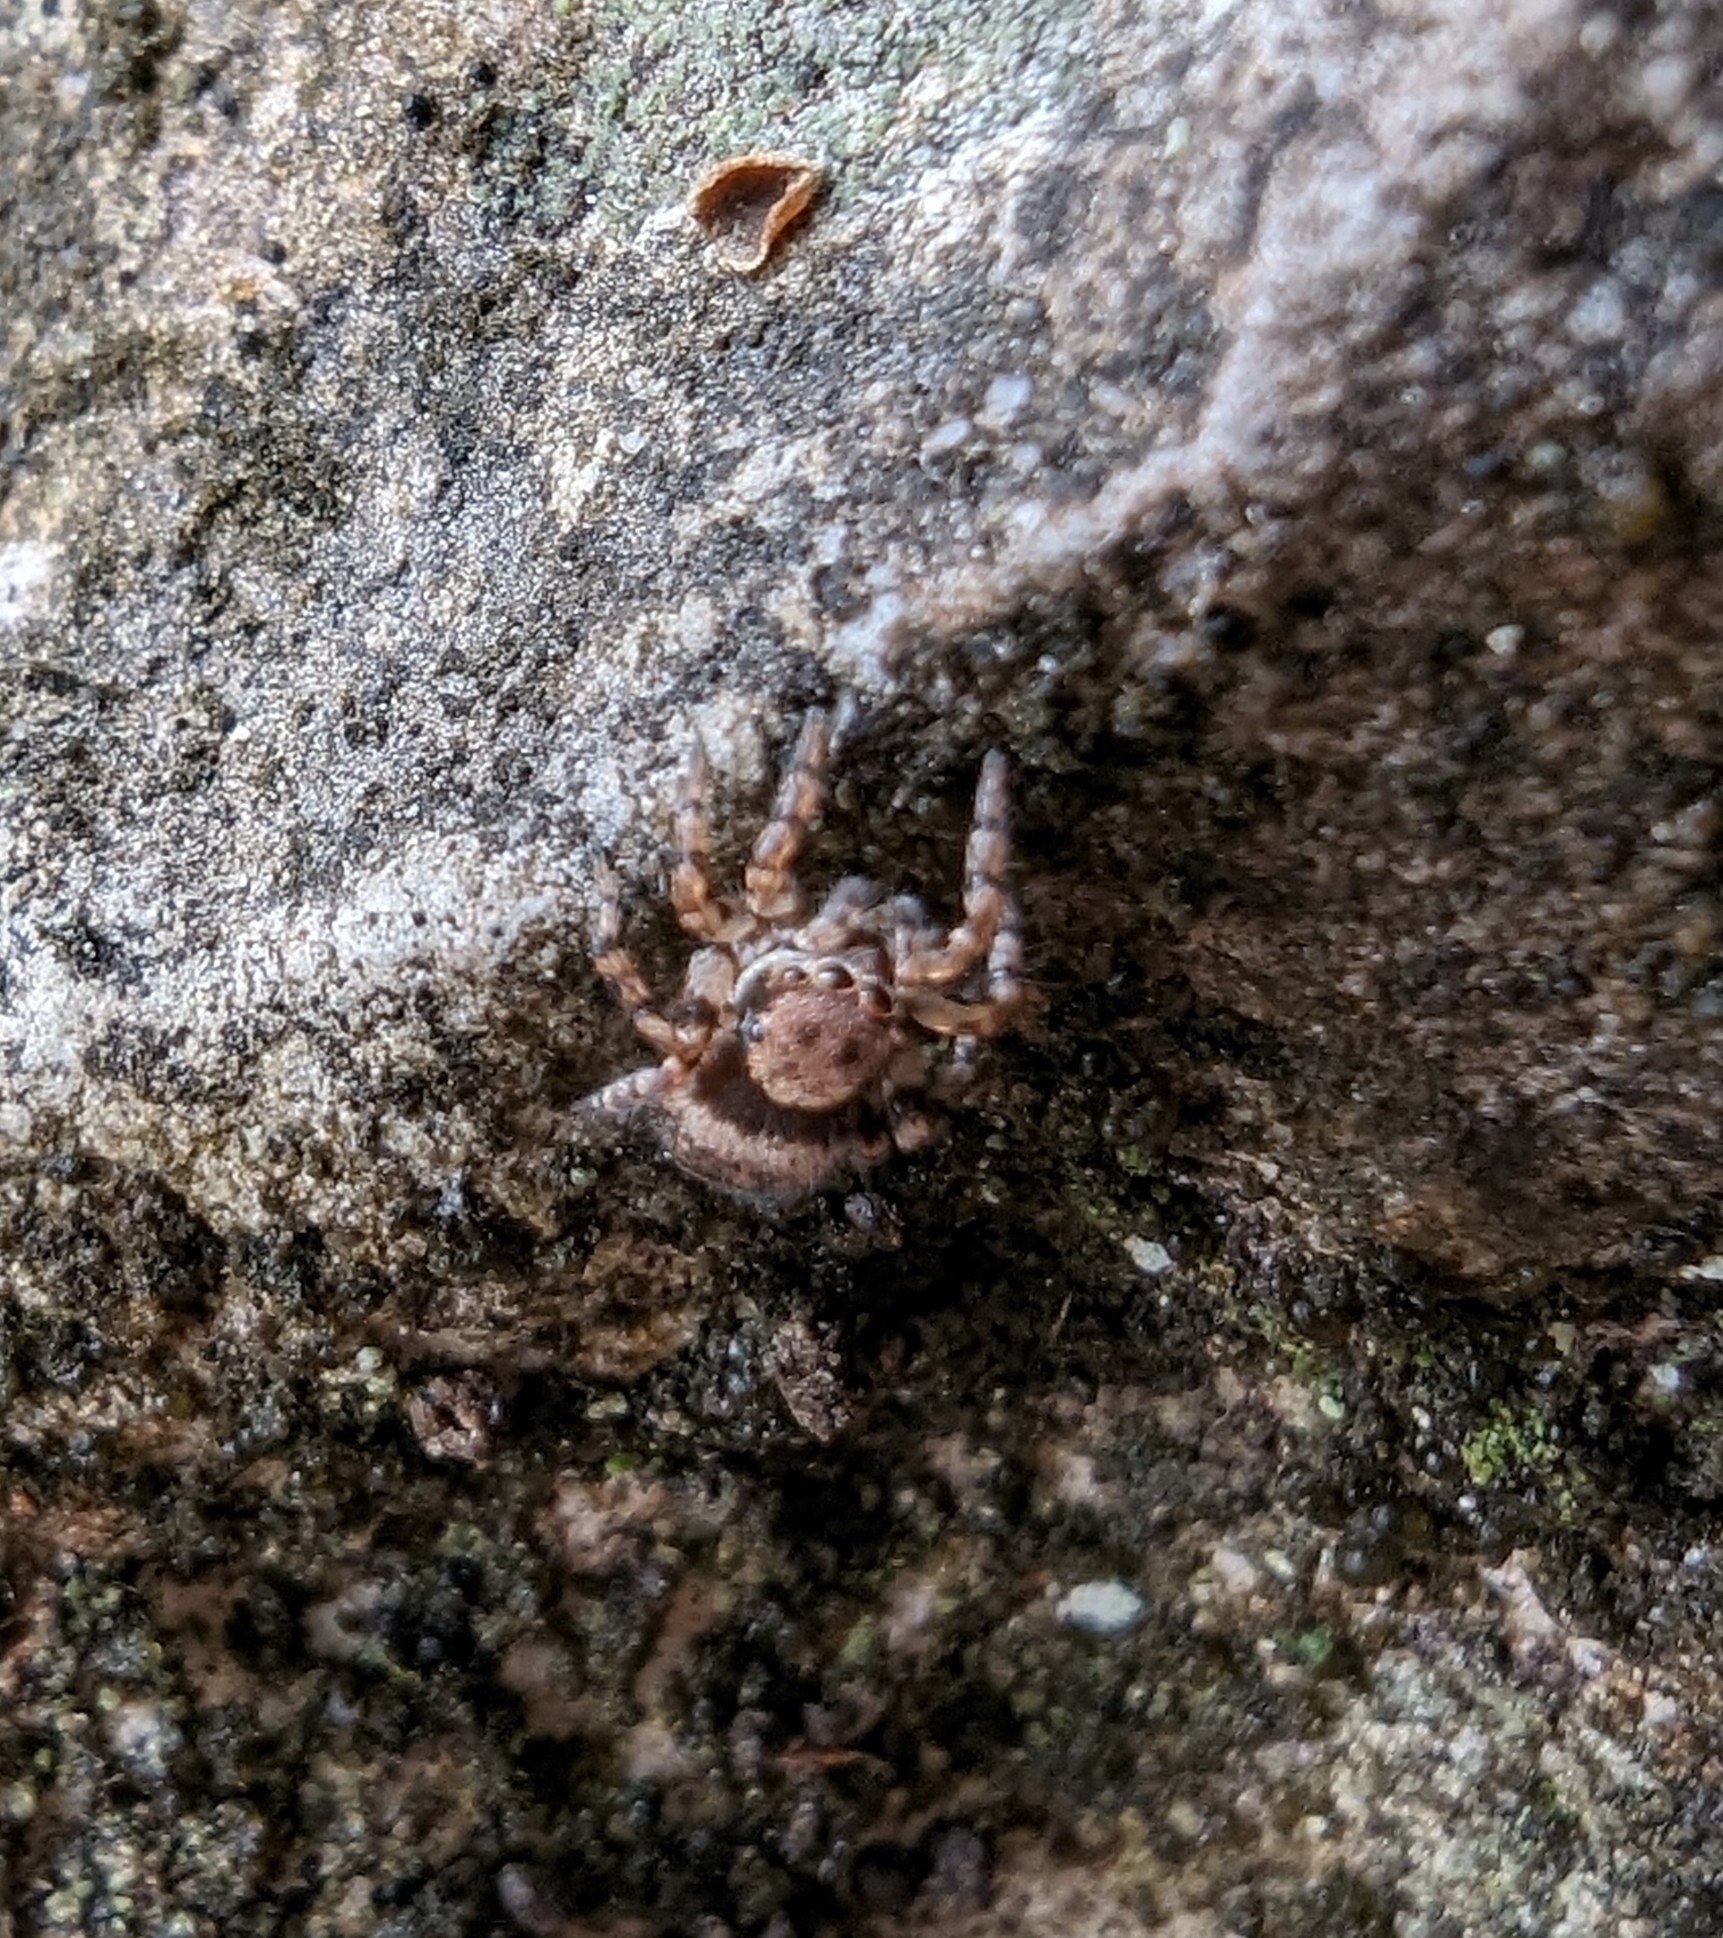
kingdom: Animalia
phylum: Arthropoda
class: Arachnida
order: Araneae
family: Salticidae
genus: Naphrys
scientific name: Naphrys acerba
